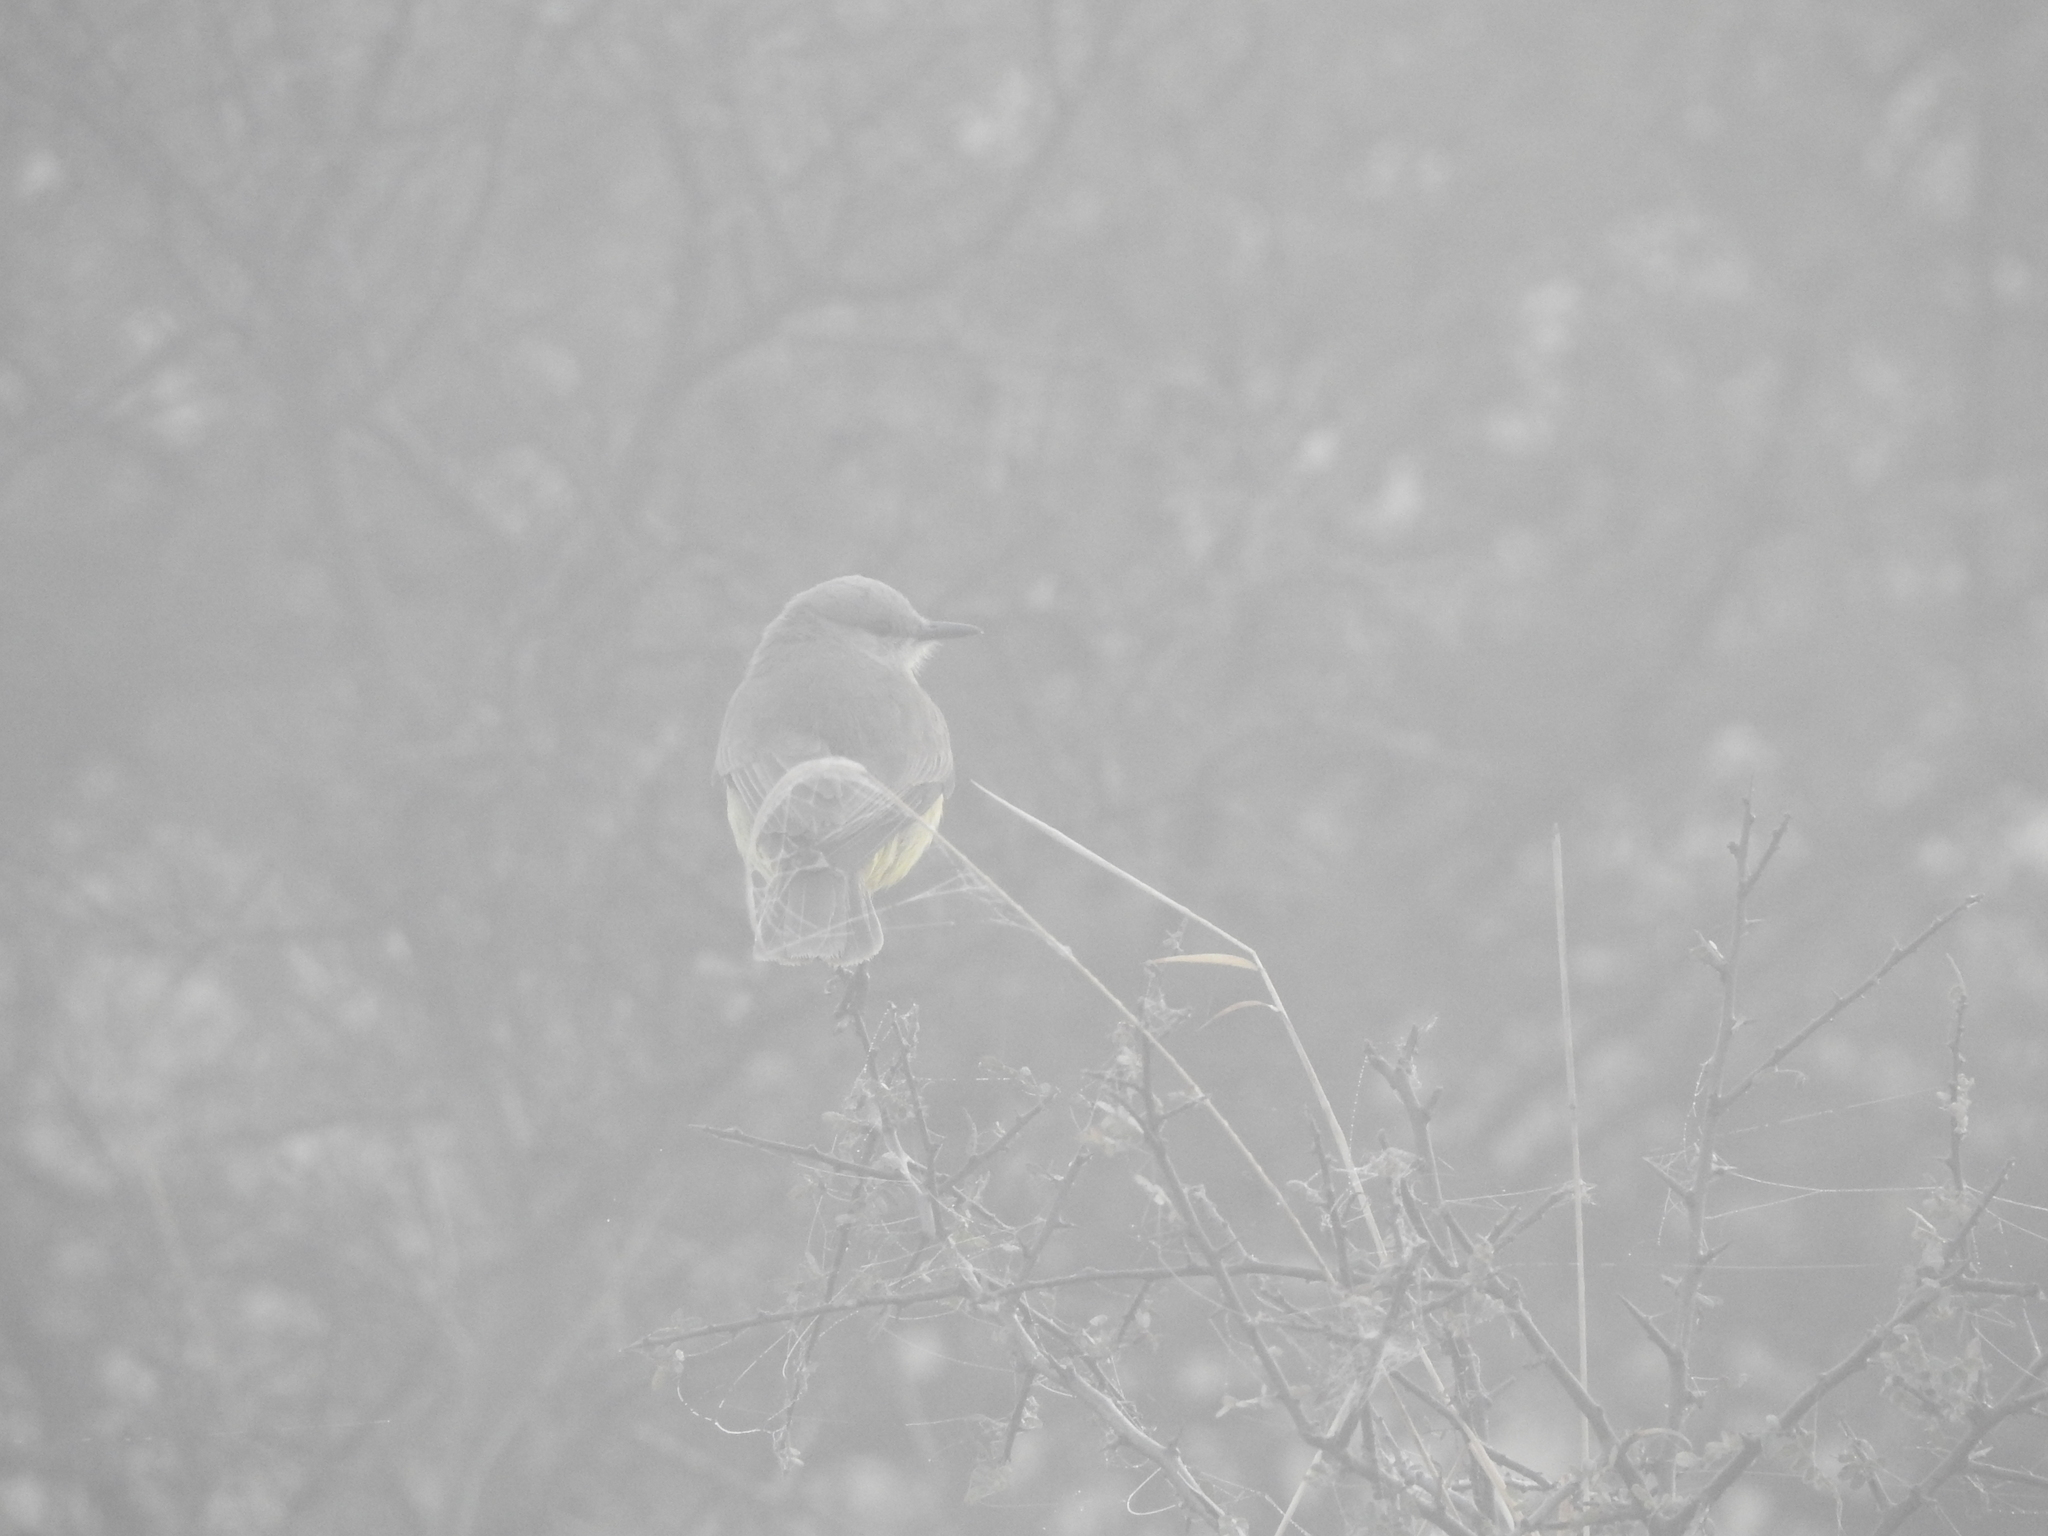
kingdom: Animalia
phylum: Chordata
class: Aves
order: Passeriformes
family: Tyrannidae
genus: Machetornis
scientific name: Machetornis rixosa
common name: Cattle tyrant
